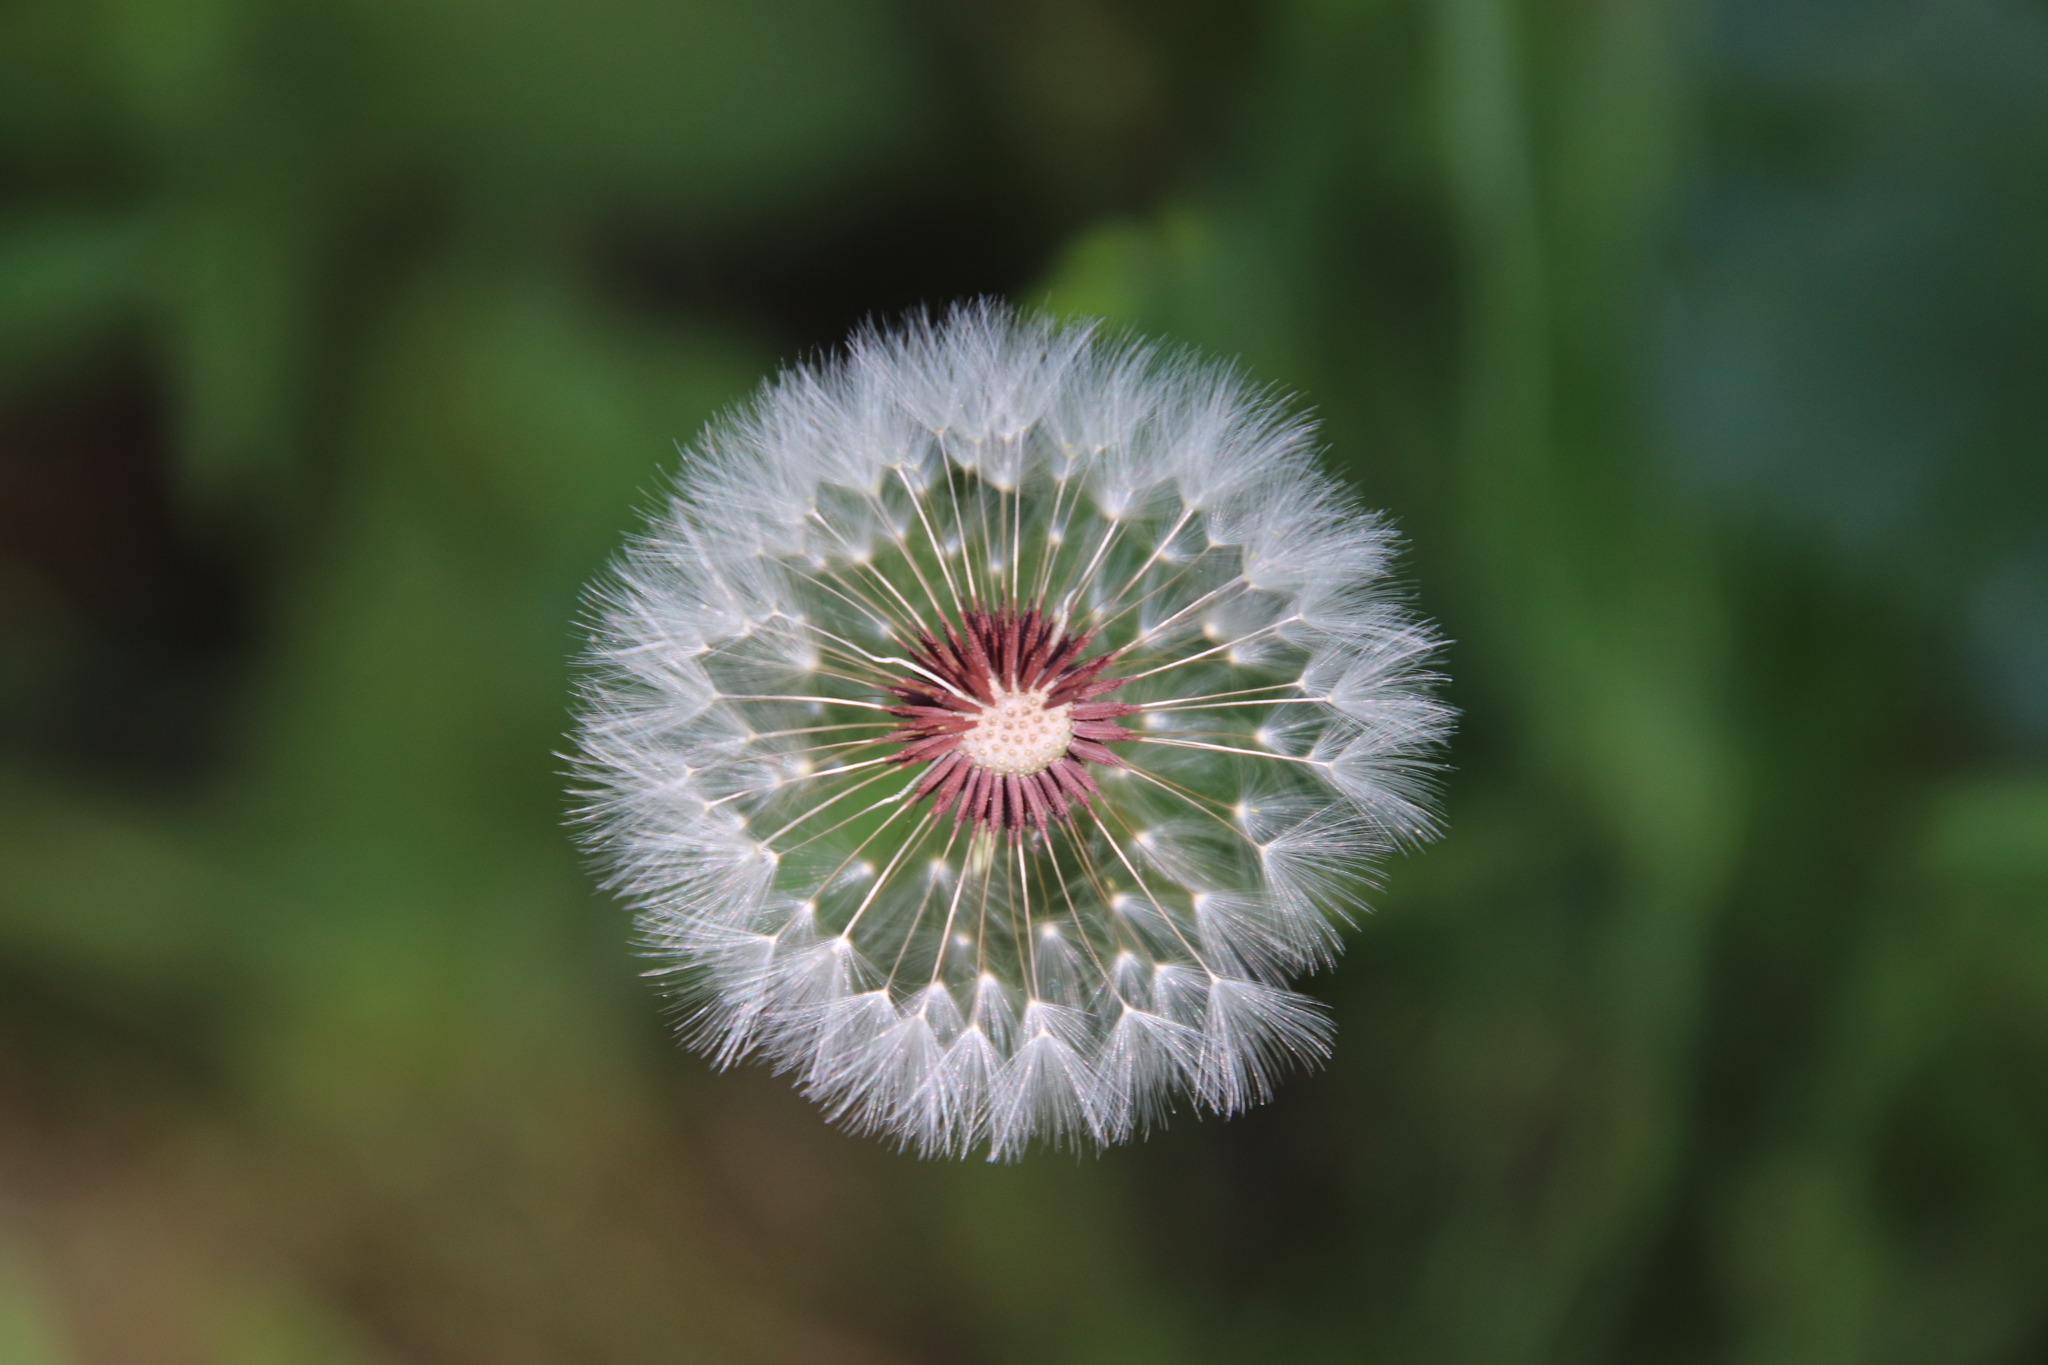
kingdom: Plantae
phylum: Tracheophyta
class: Magnoliopsida
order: Asterales
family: Asteraceae
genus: Taraxacum
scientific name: Taraxacum erythrospermum
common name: Rock dandelion
